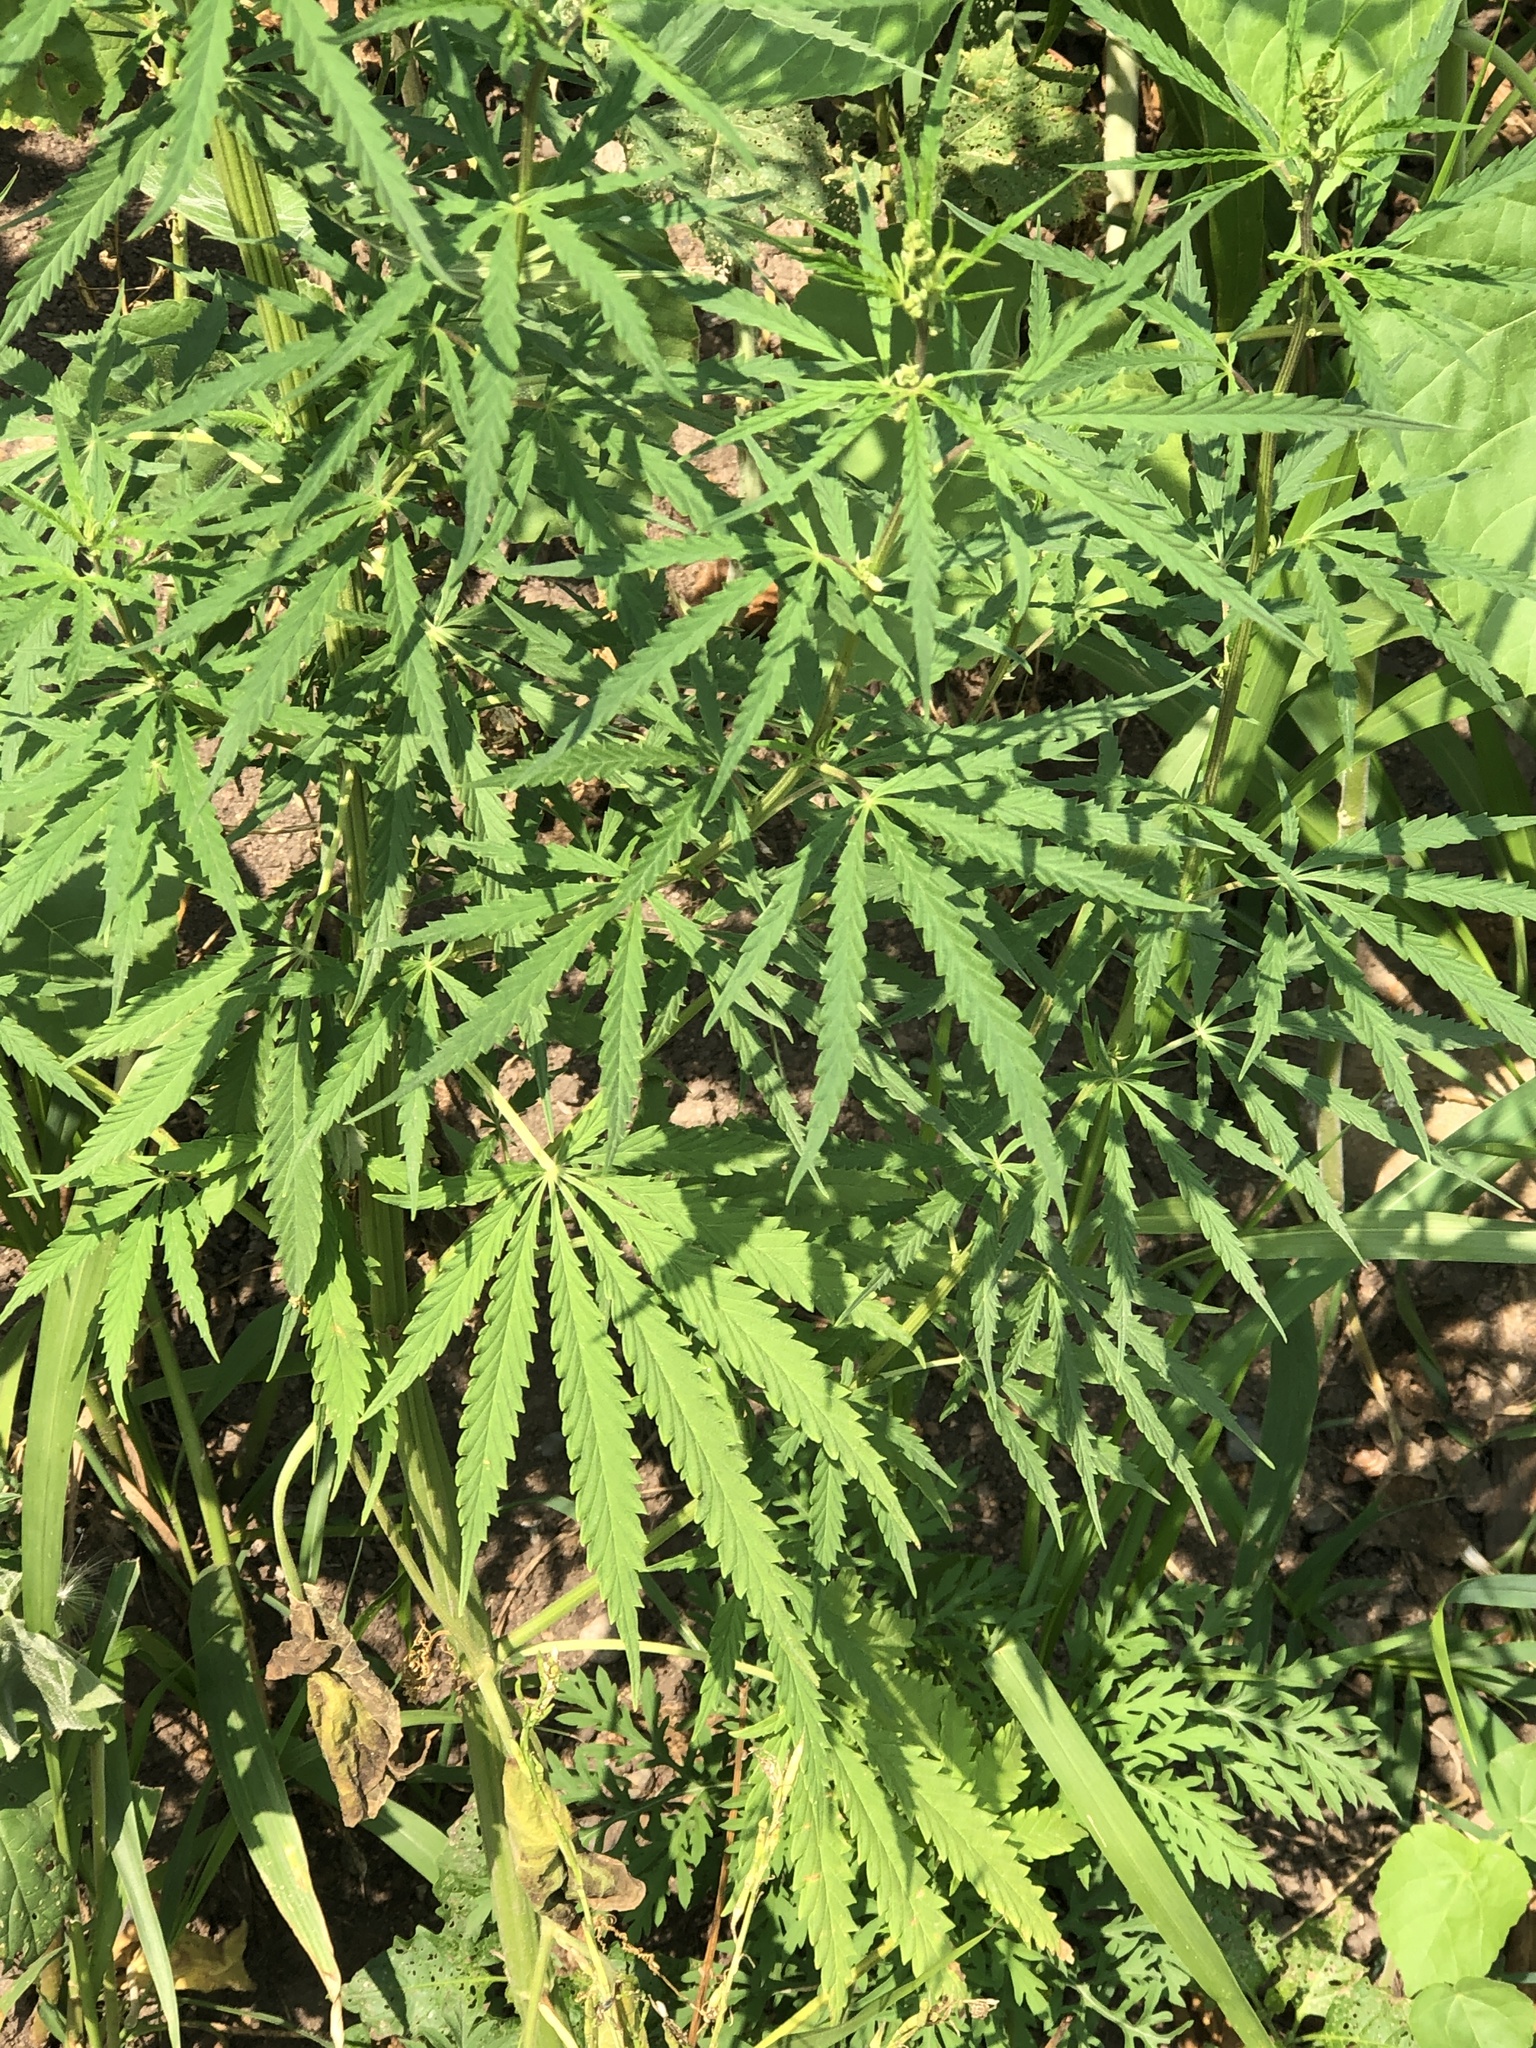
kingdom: Plantae
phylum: Tracheophyta
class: Magnoliopsida
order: Rosales
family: Cannabaceae
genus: Cannabis
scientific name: Cannabis sativa
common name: Hemp
